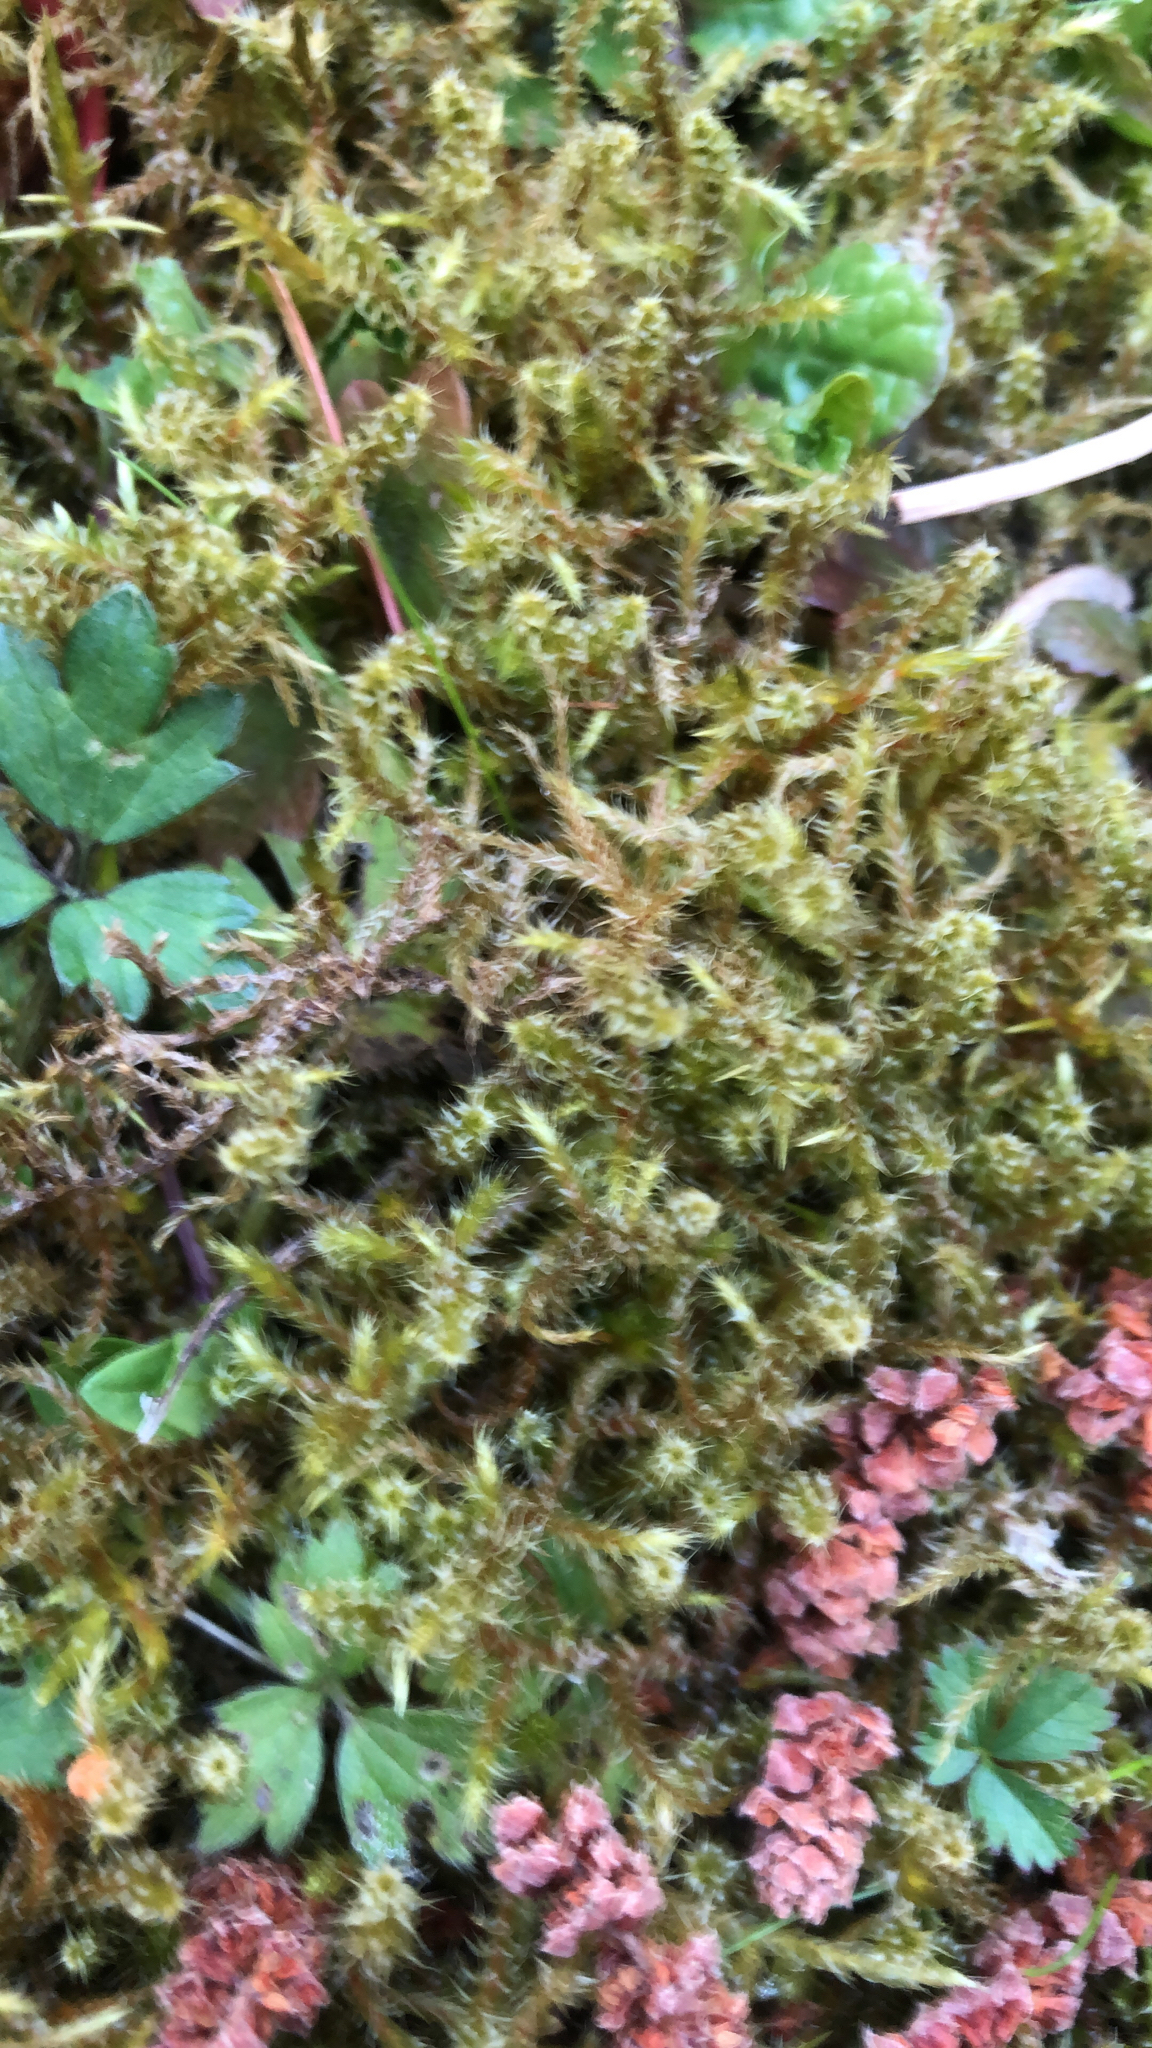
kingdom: Plantae
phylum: Bryophyta
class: Bryopsida
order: Hypnales
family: Hylocomiaceae
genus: Rhytidiadelphus
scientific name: Rhytidiadelphus squarrosus
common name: Springy turf-moss
